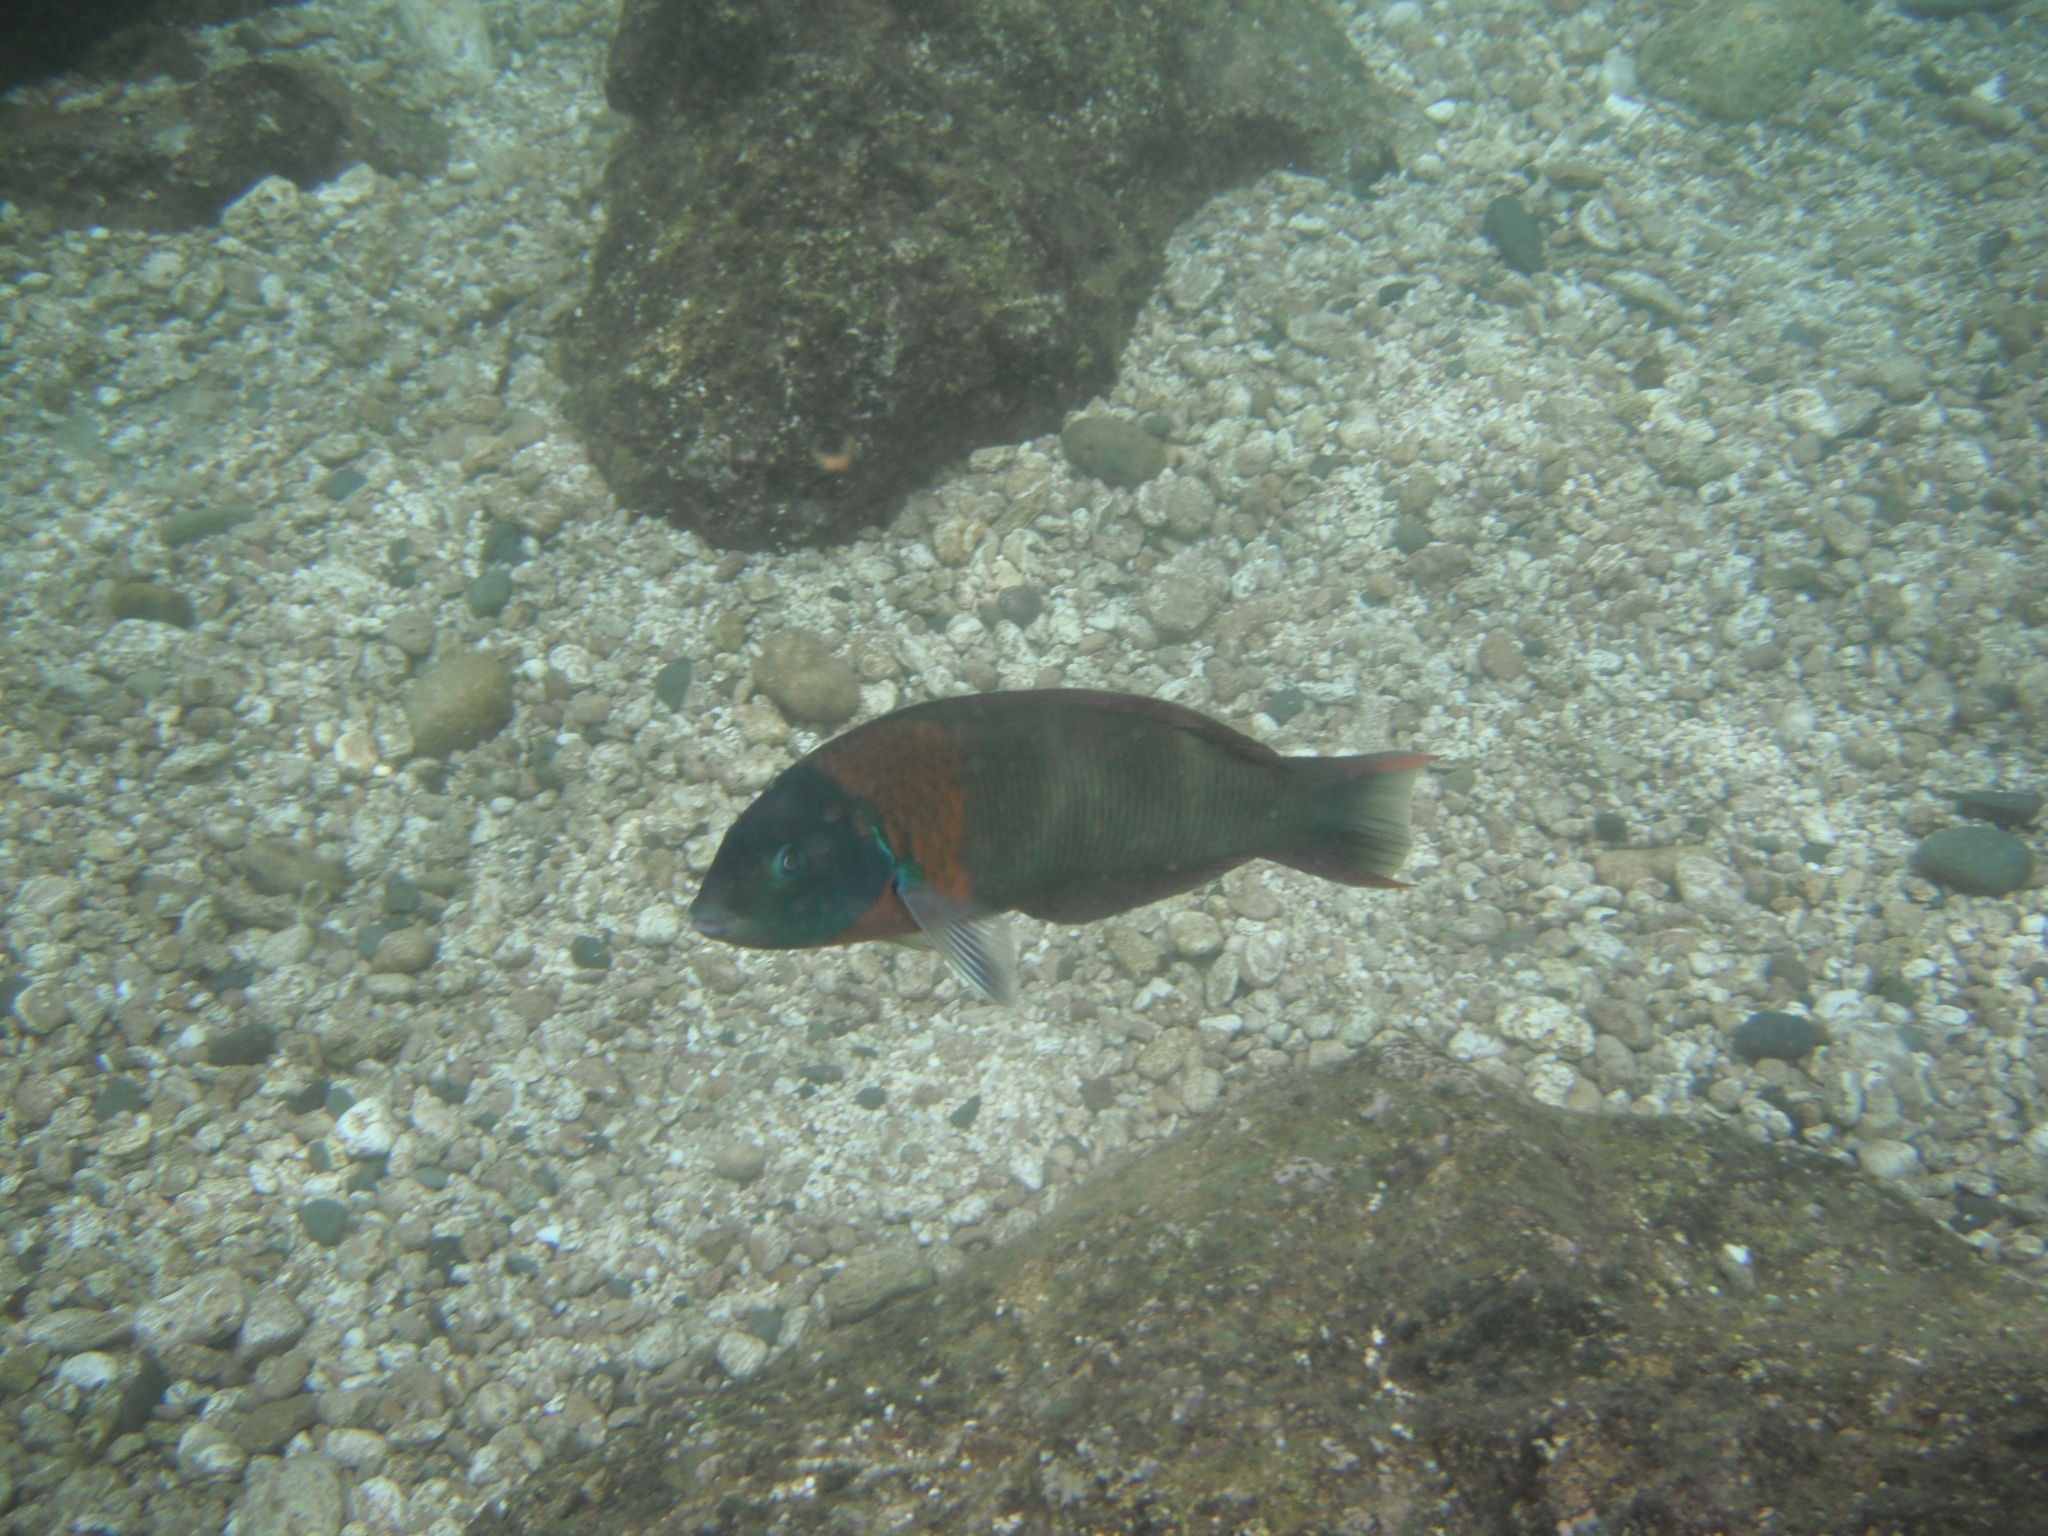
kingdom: Animalia
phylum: Chordata
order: Perciformes
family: Labridae
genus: Thalassoma
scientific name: Thalassoma duperrey
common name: Saddle wrasse
